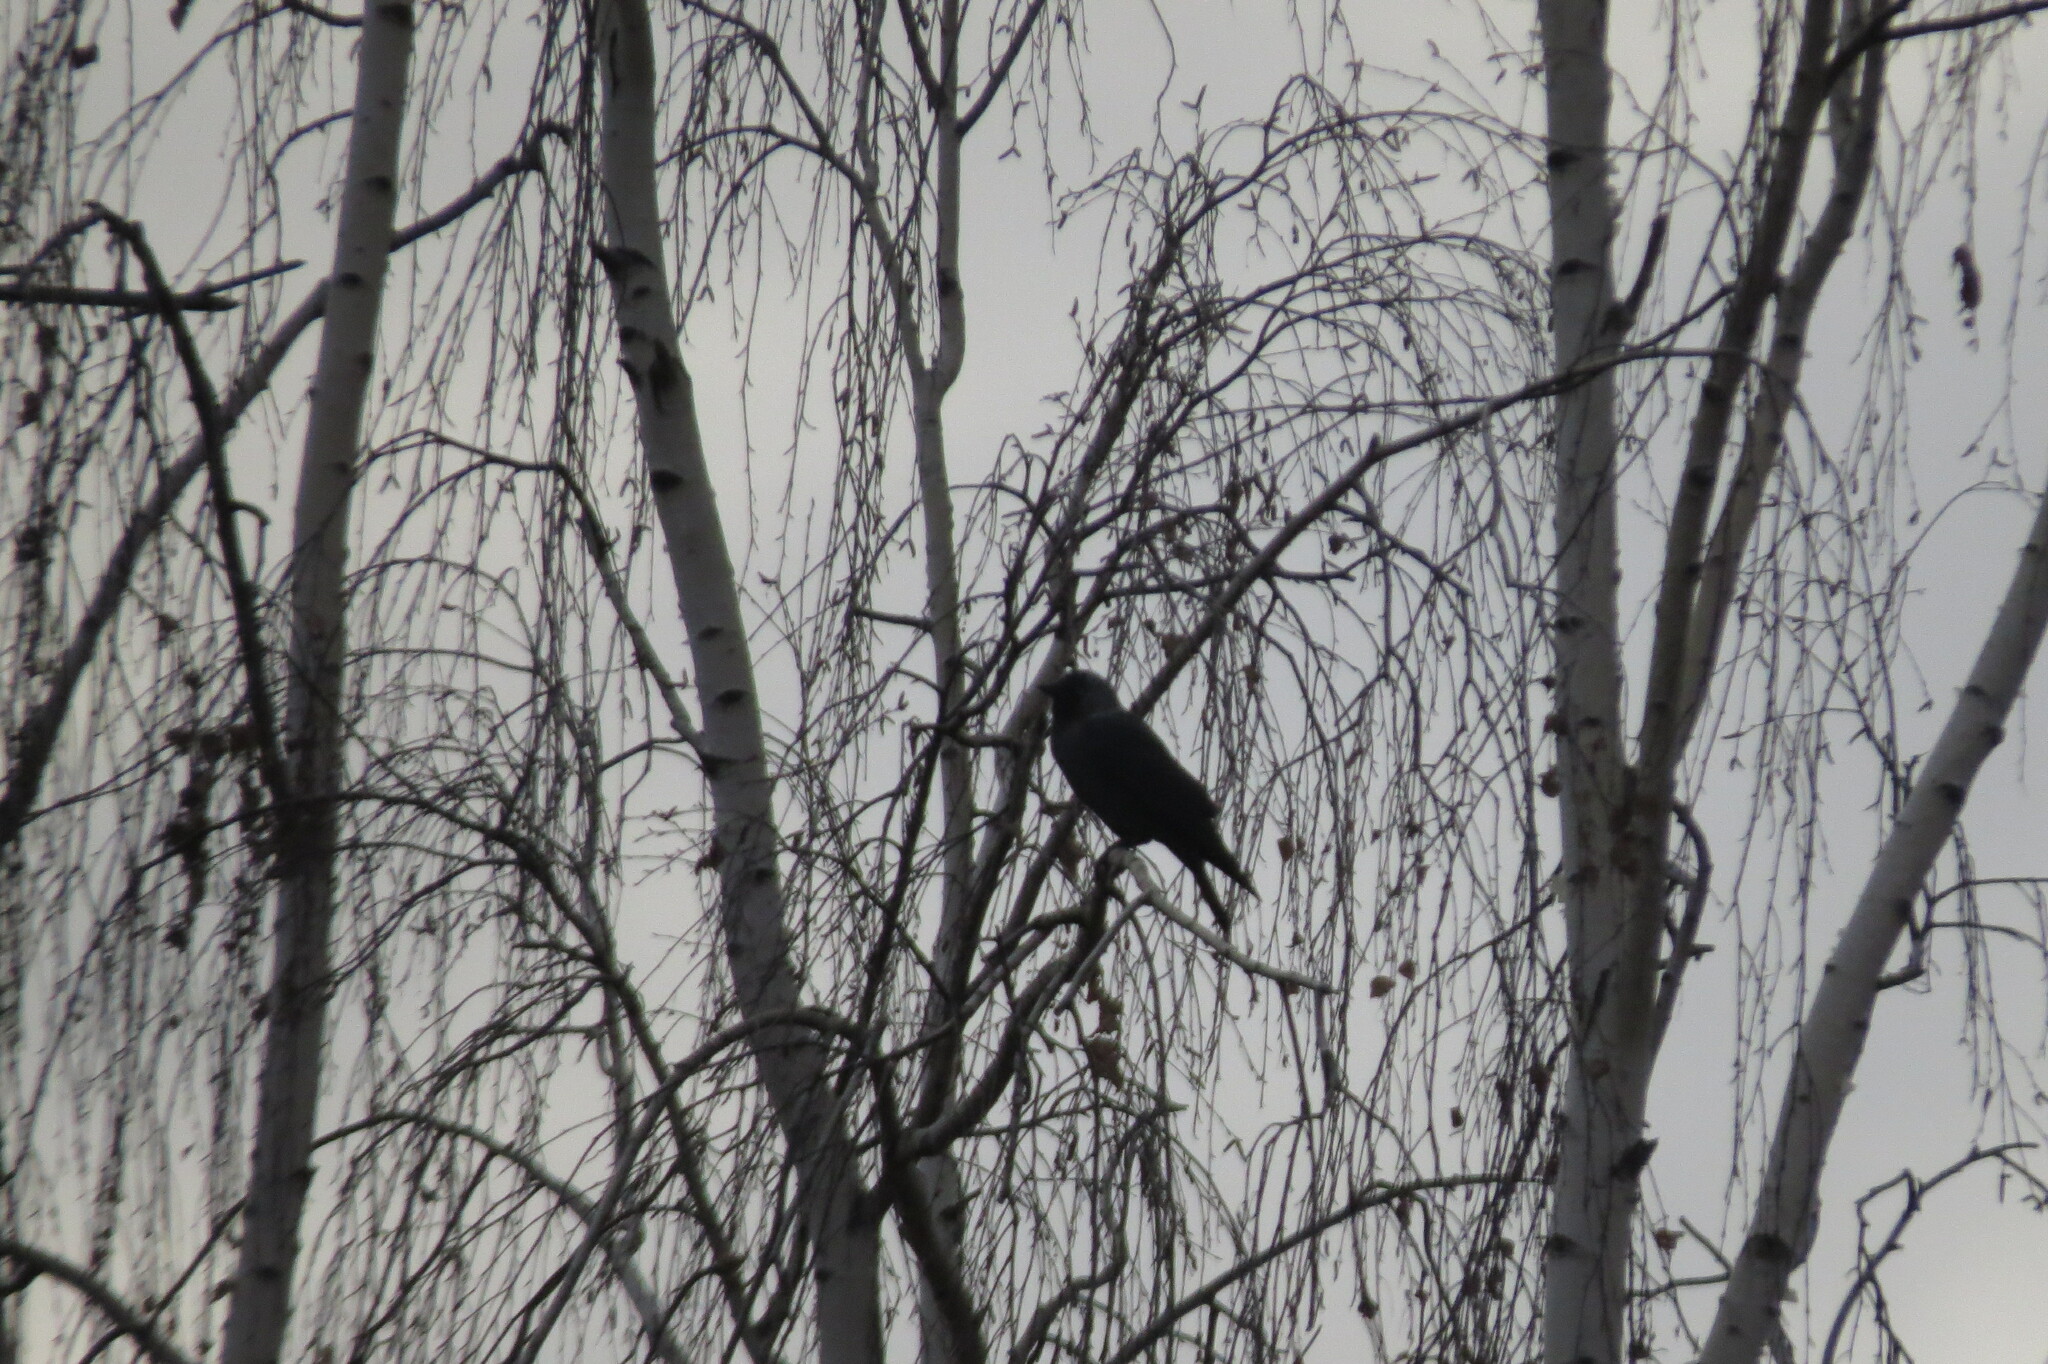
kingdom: Animalia
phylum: Chordata
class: Aves
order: Passeriformes
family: Corvidae
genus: Coloeus
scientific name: Coloeus monedula
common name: Western jackdaw
